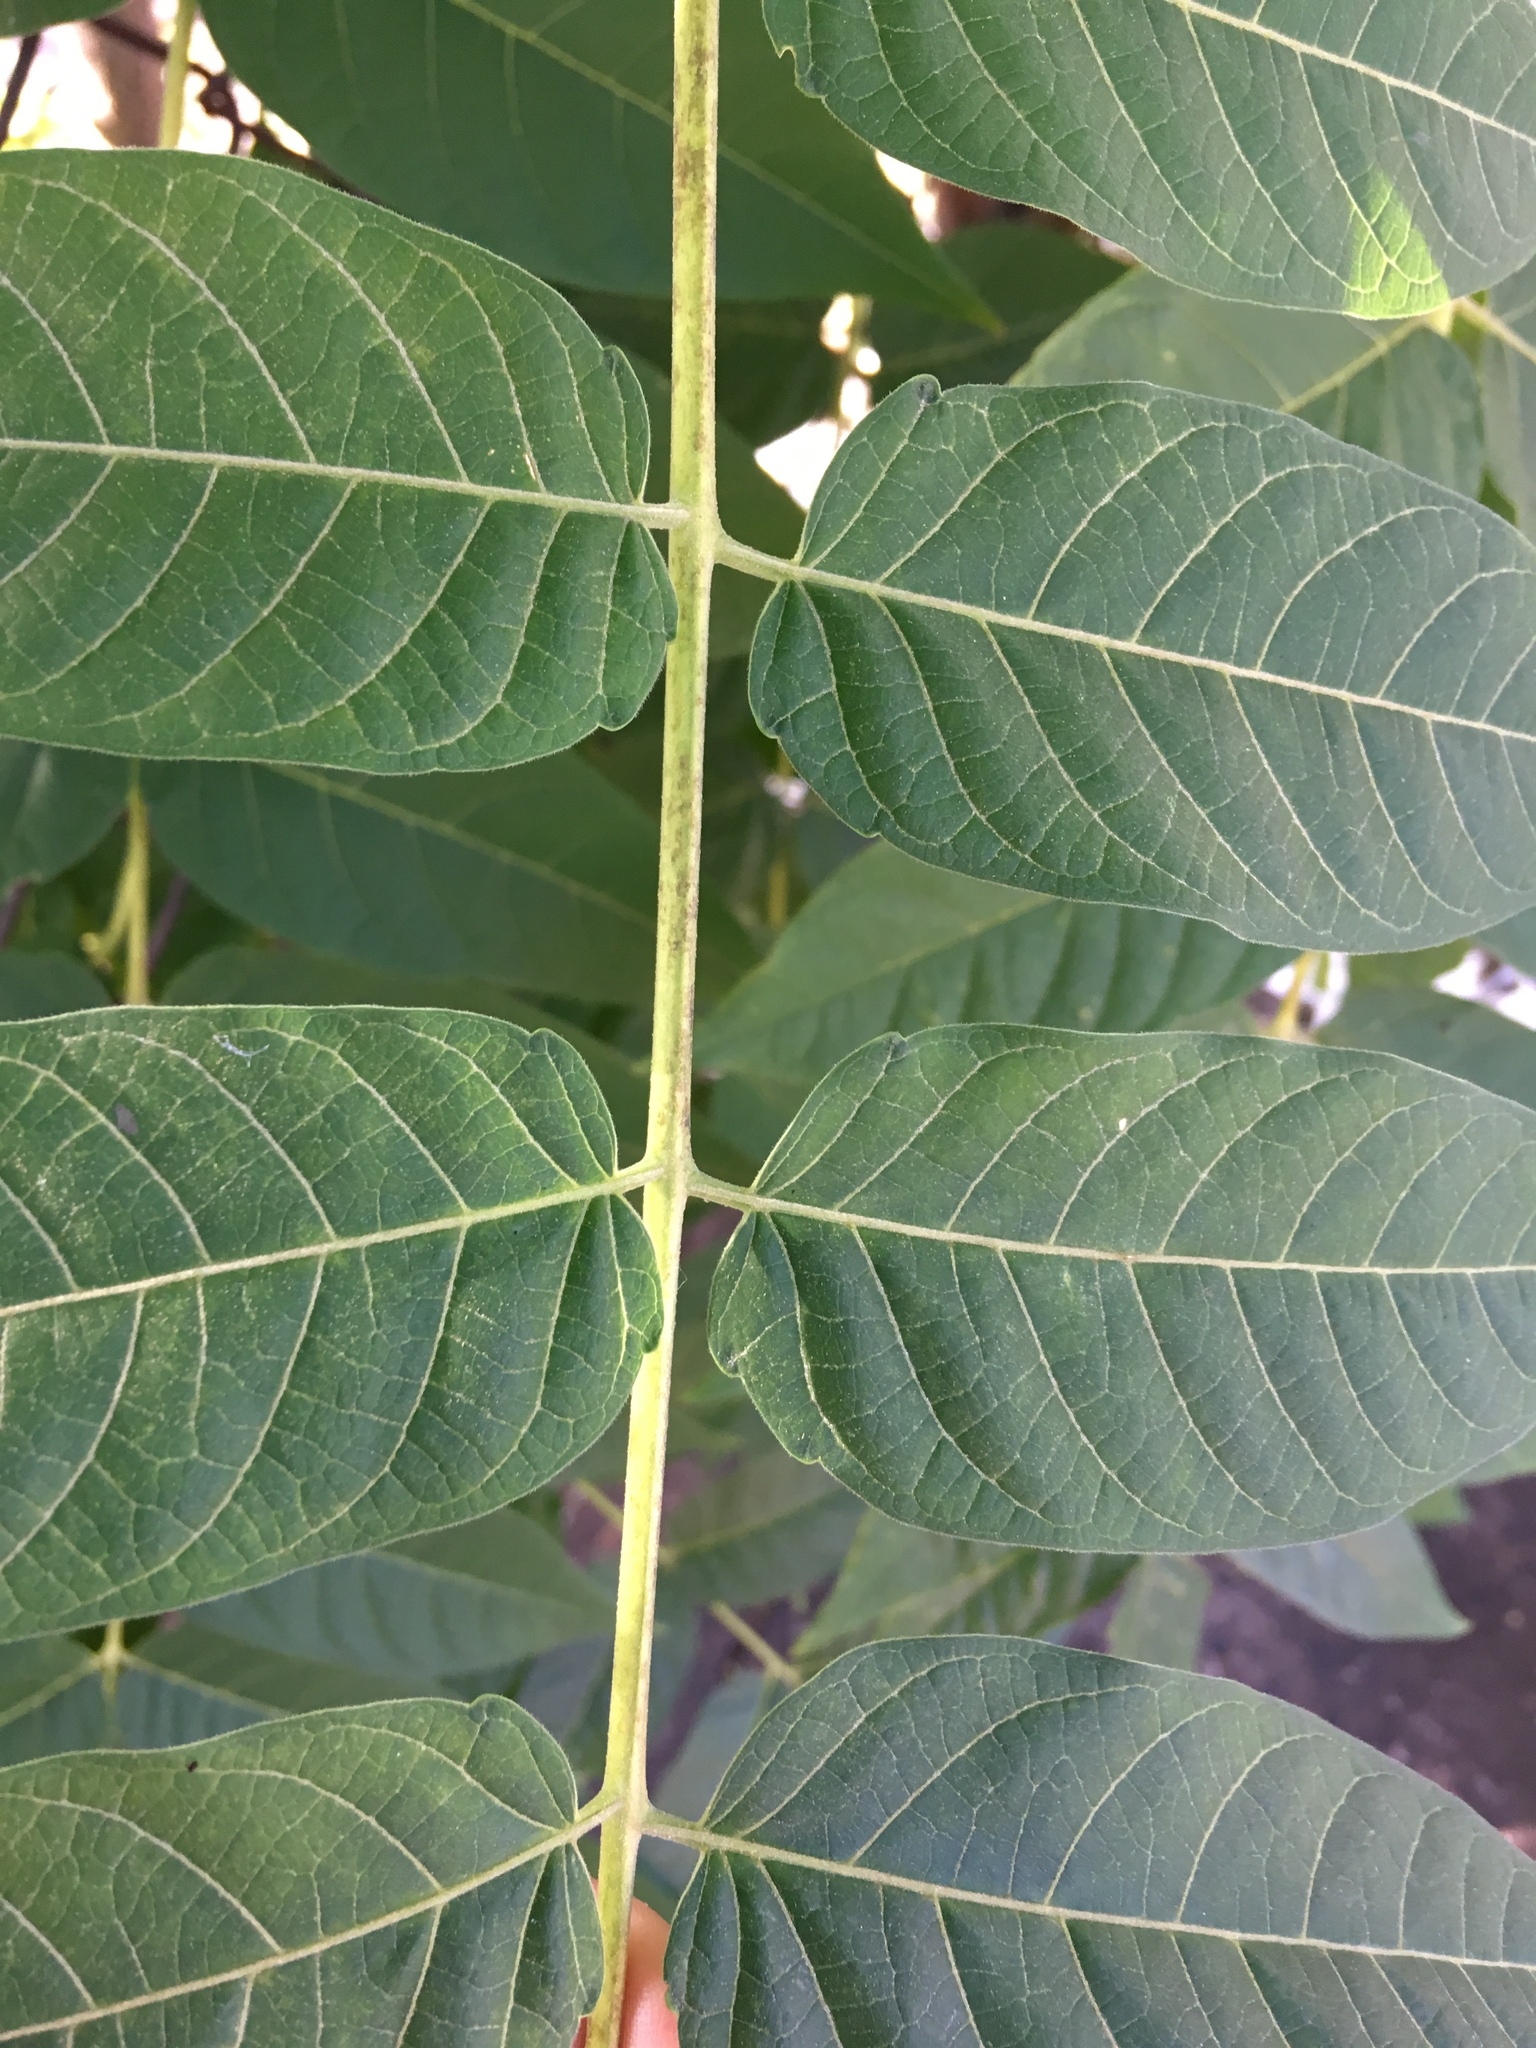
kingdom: Plantae
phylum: Tracheophyta
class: Magnoliopsida
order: Sapindales
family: Simaroubaceae
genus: Ailanthus
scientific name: Ailanthus altissima
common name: Tree-of-heaven
